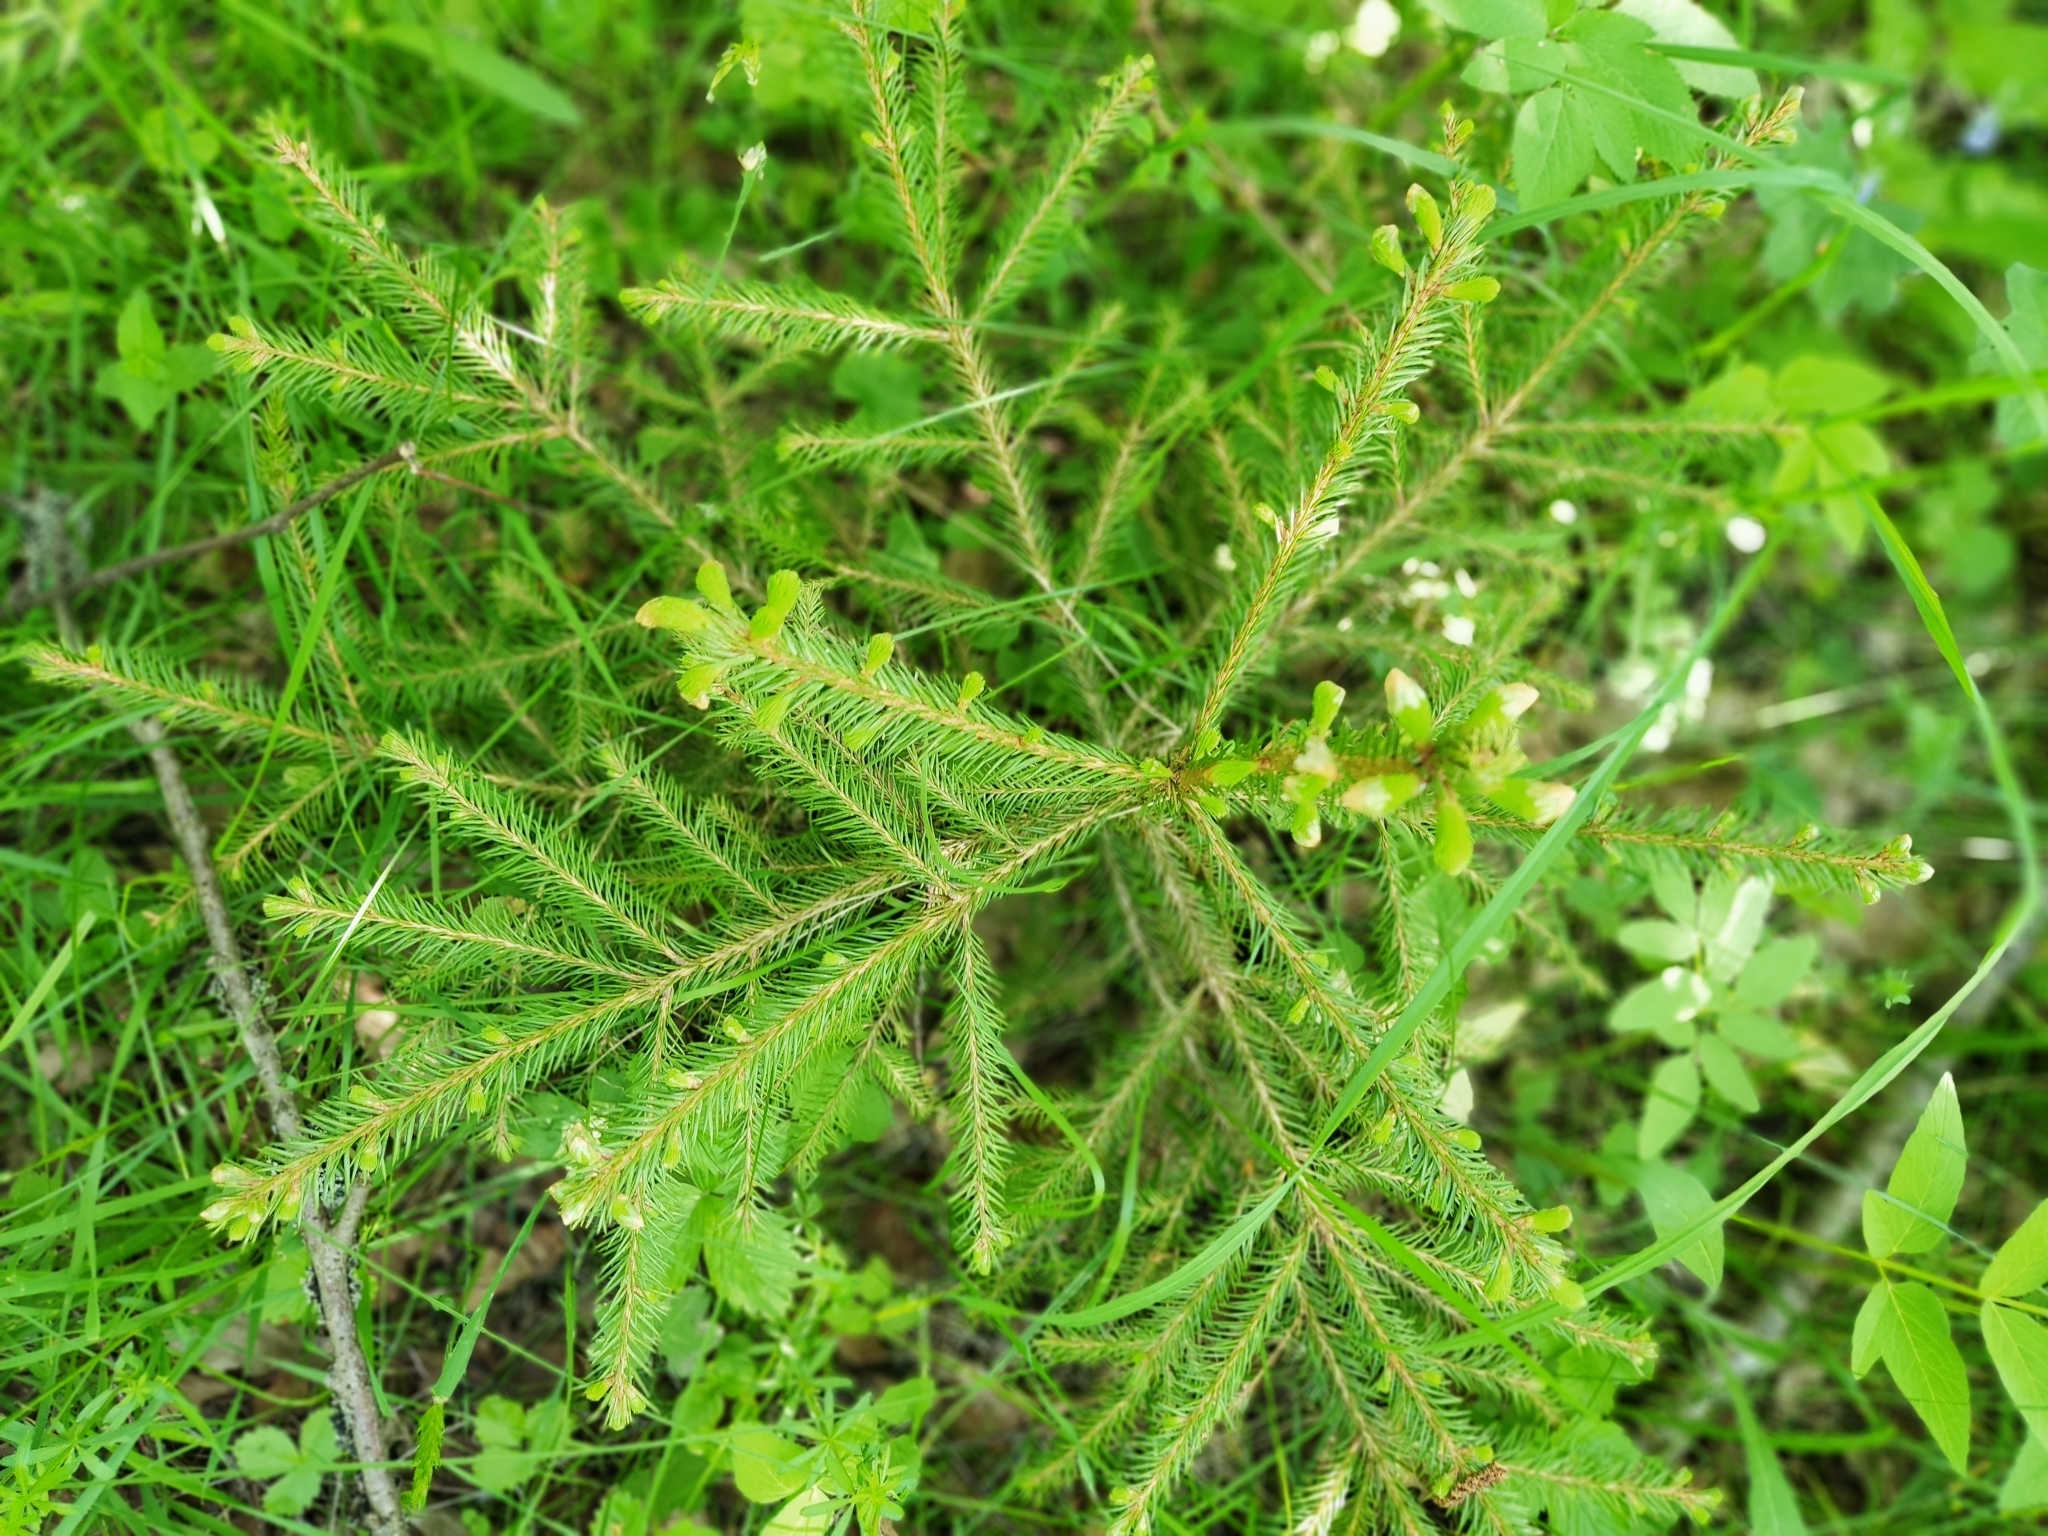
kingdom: Plantae
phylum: Tracheophyta
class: Pinopsida
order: Pinales
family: Pinaceae
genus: Picea
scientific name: Picea abies
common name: Norway spruce
